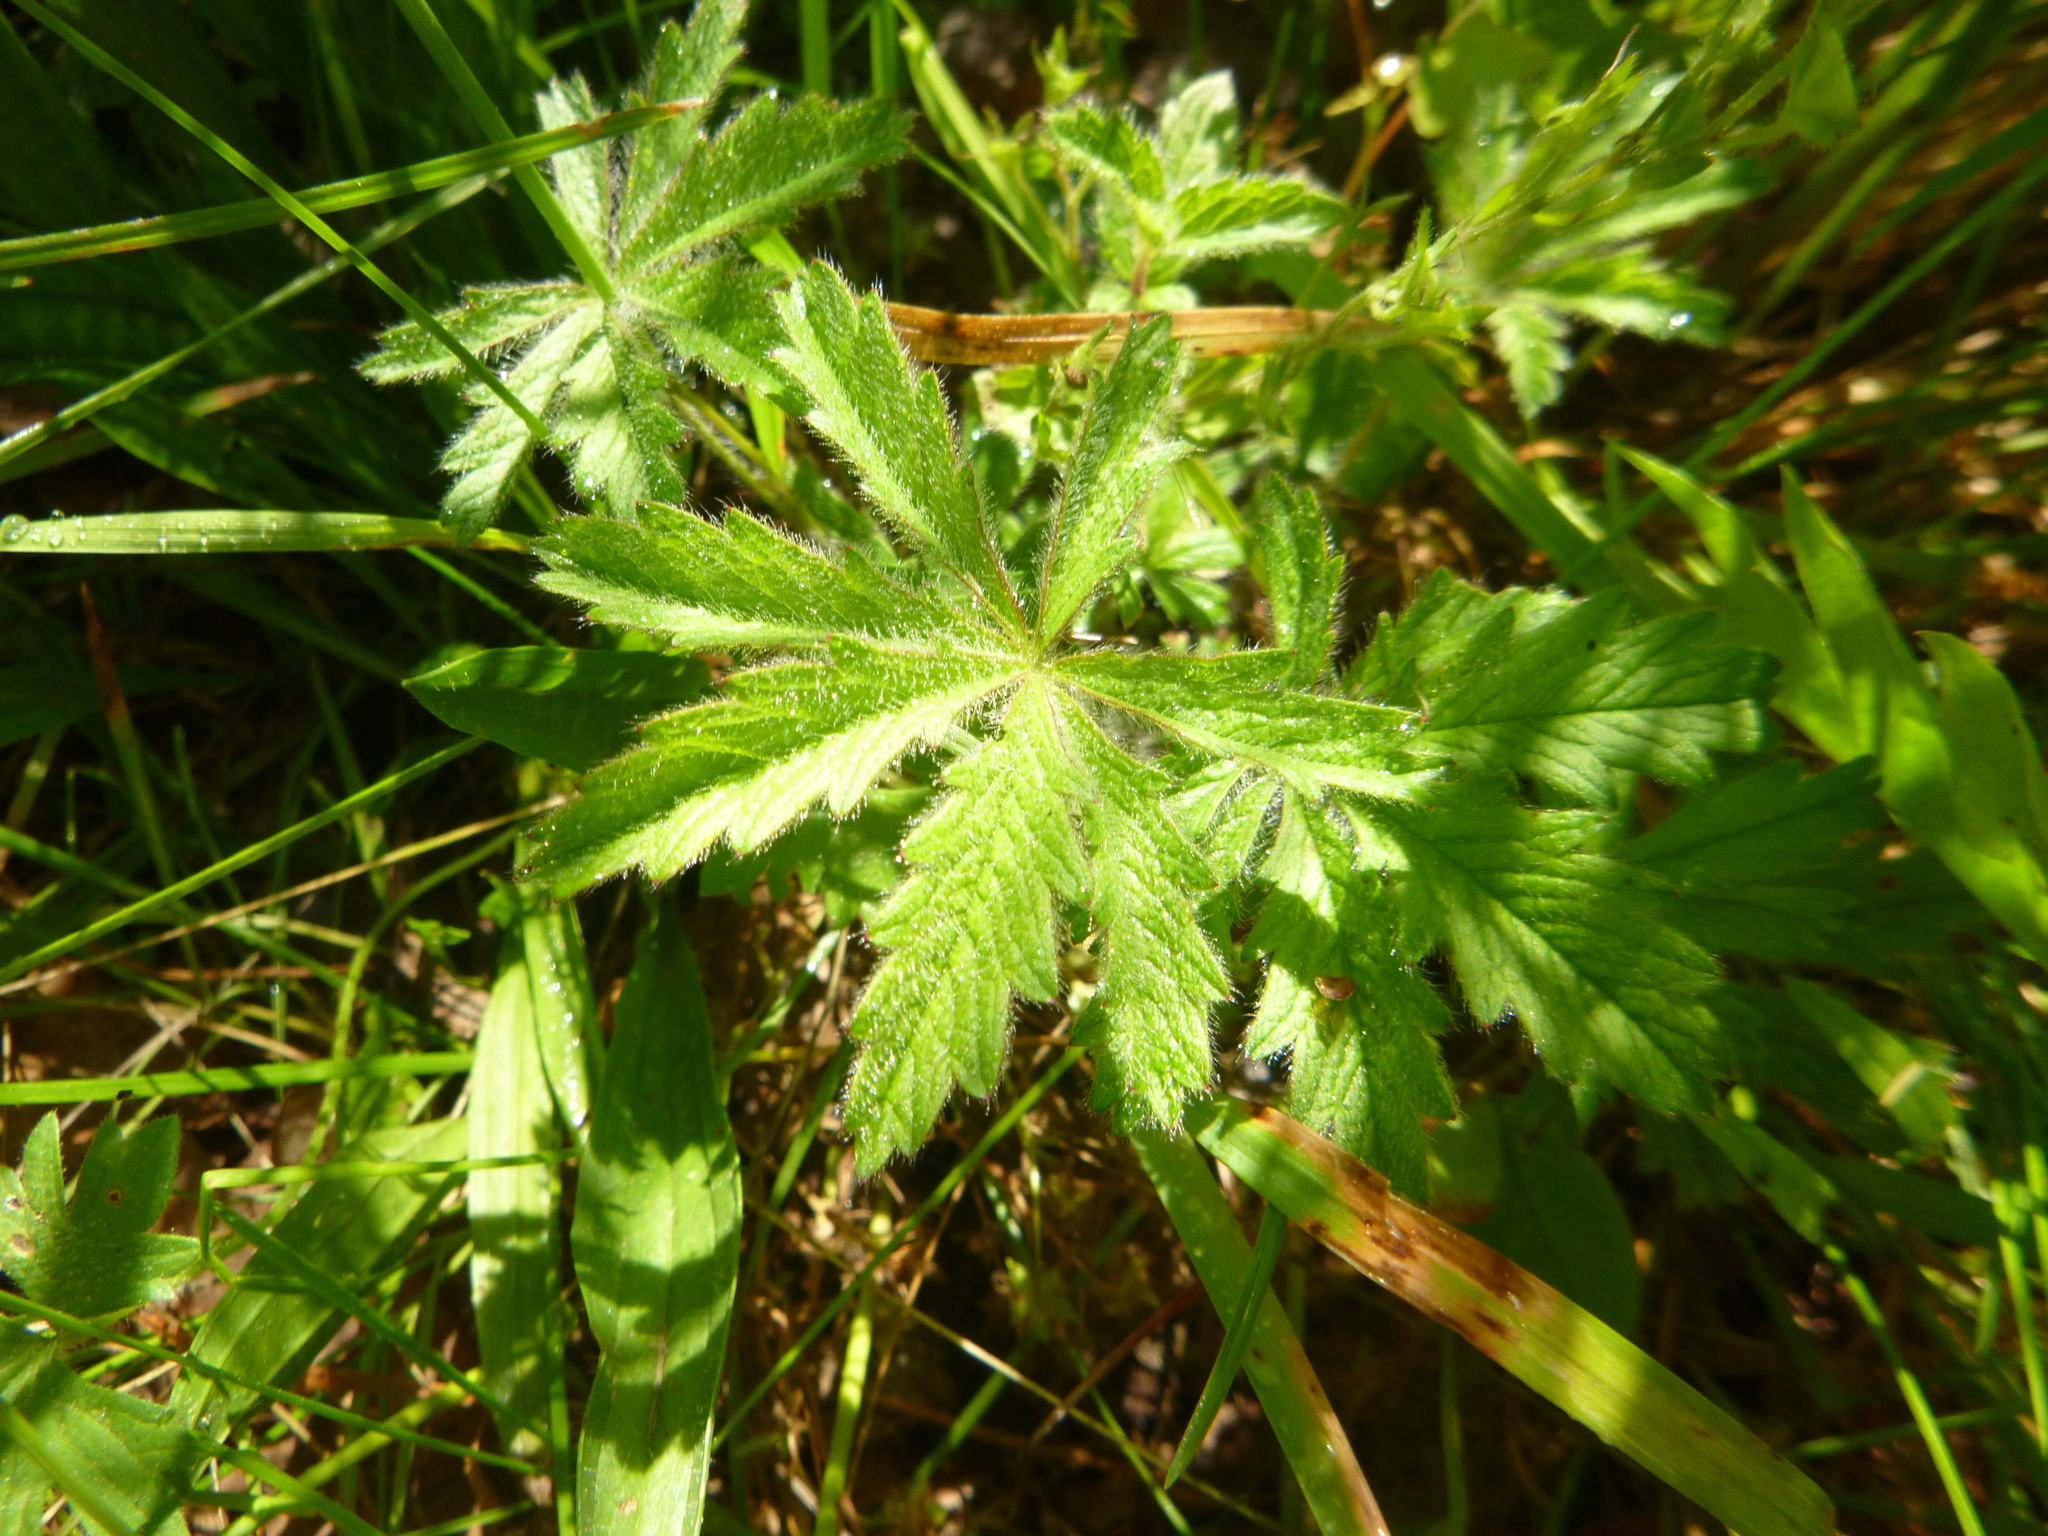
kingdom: Plantae
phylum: Tracheophyta
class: Magnoliopsida
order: Rosales
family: Rosaceae
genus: Potentilla
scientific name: Potentilla heptaphylla
